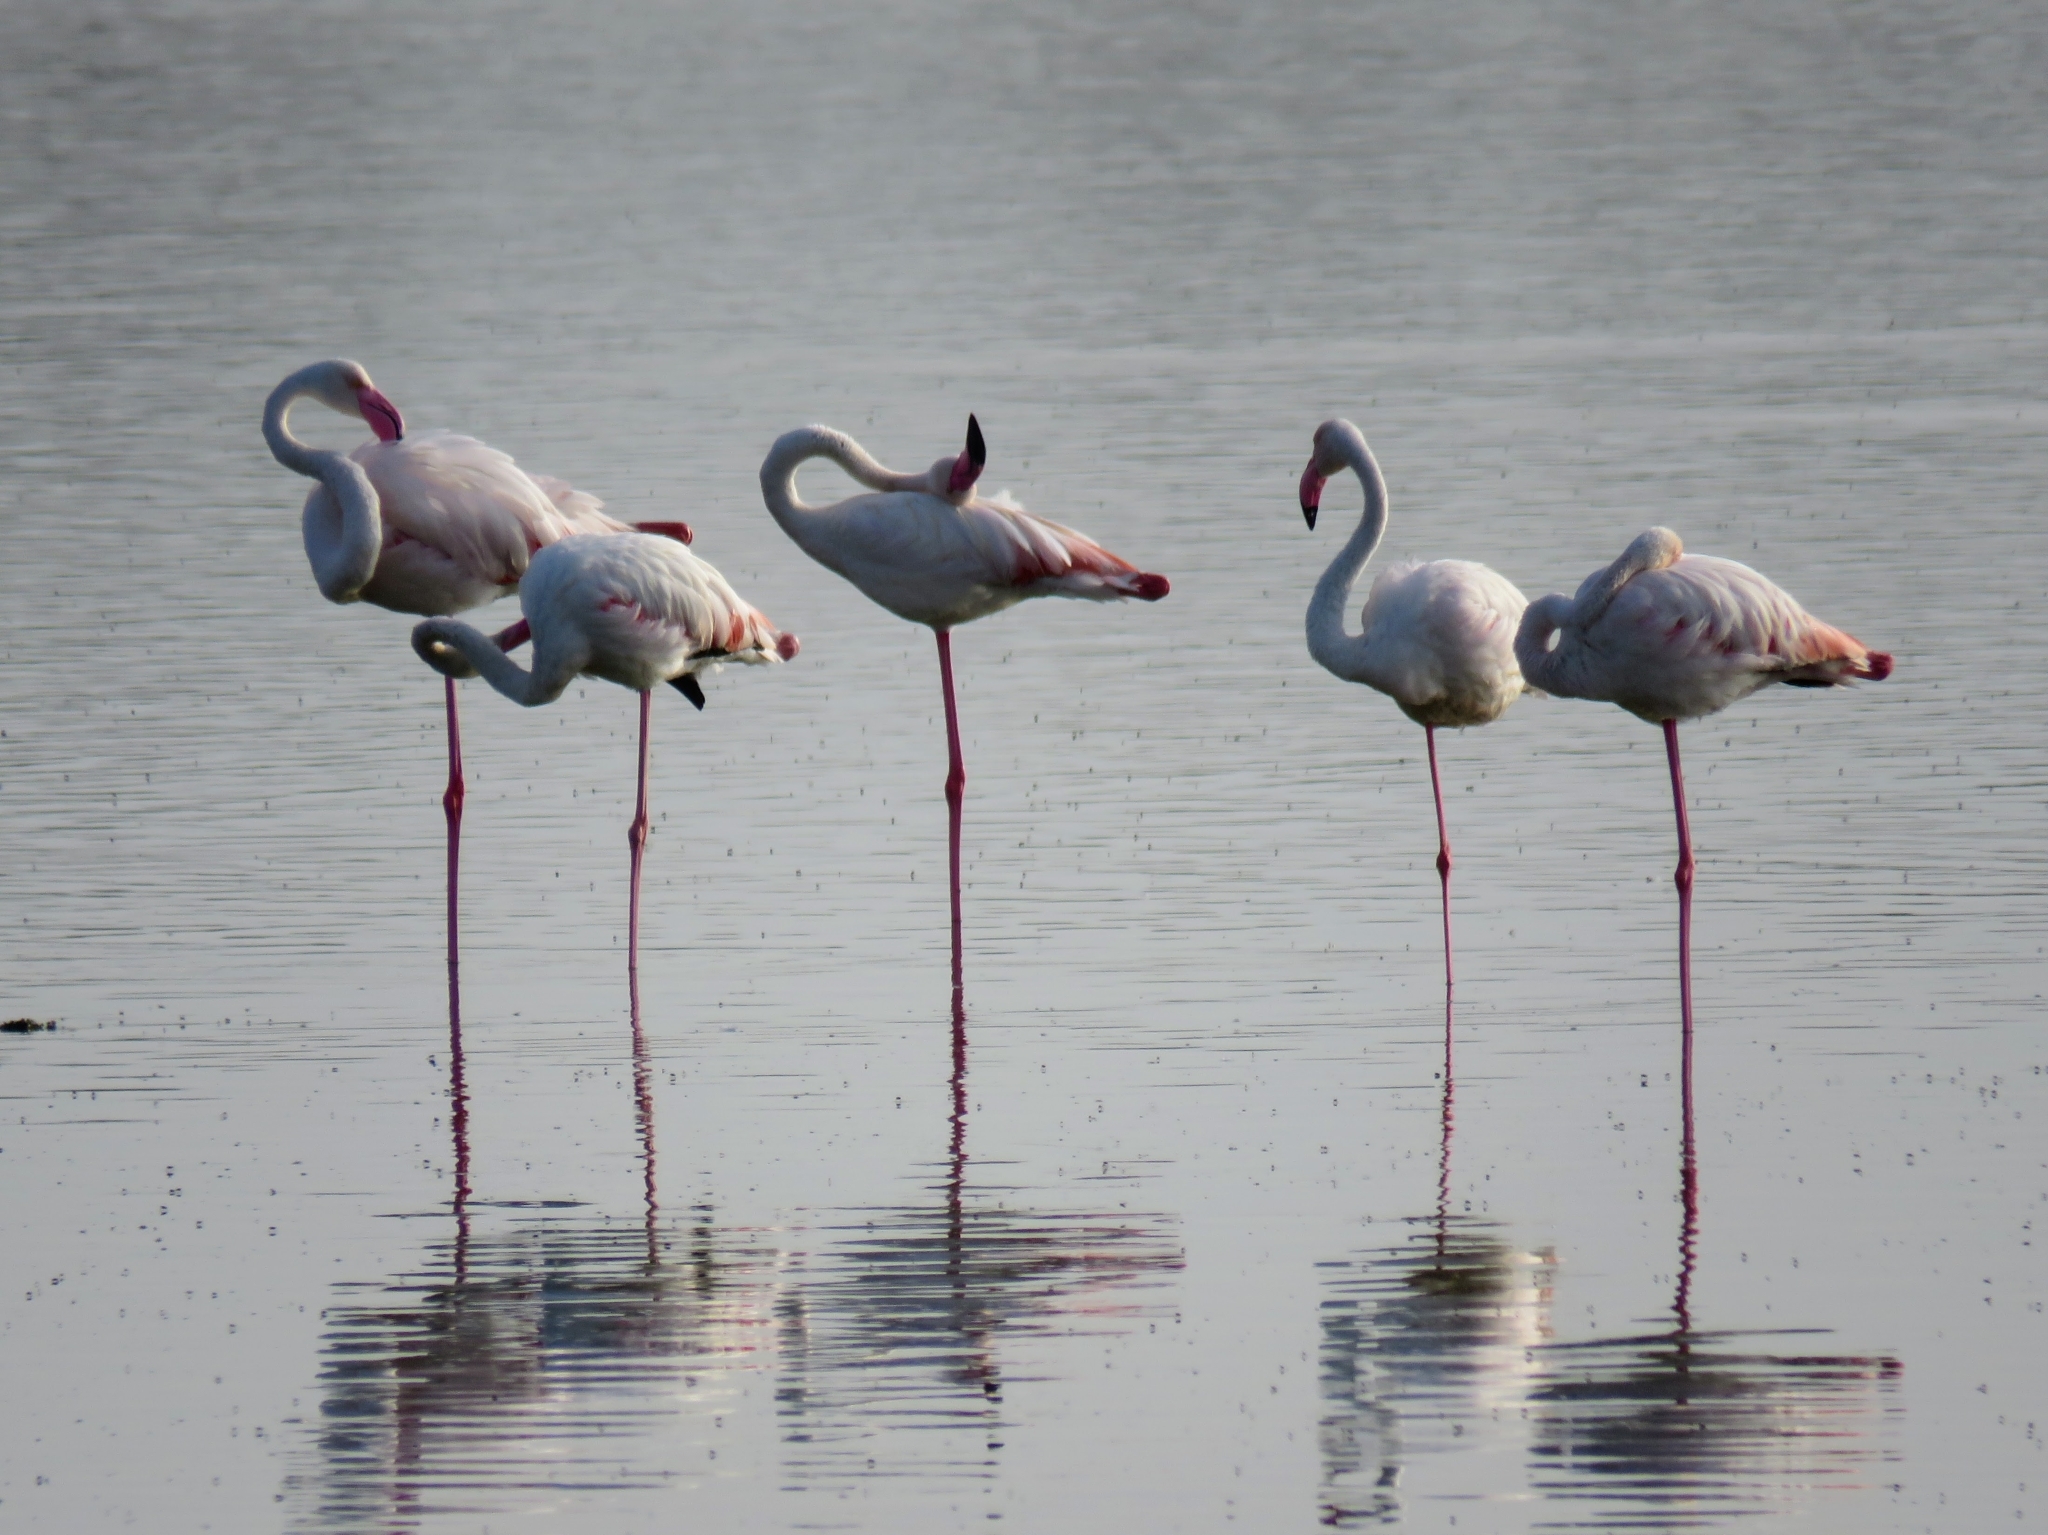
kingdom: Animalia
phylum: Chordata
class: Aves
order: Phoenicopteriformes
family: Phoenicopteridae
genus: Phoenicopterus
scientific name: Phoenicopterus roseus
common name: Greater flamingo
